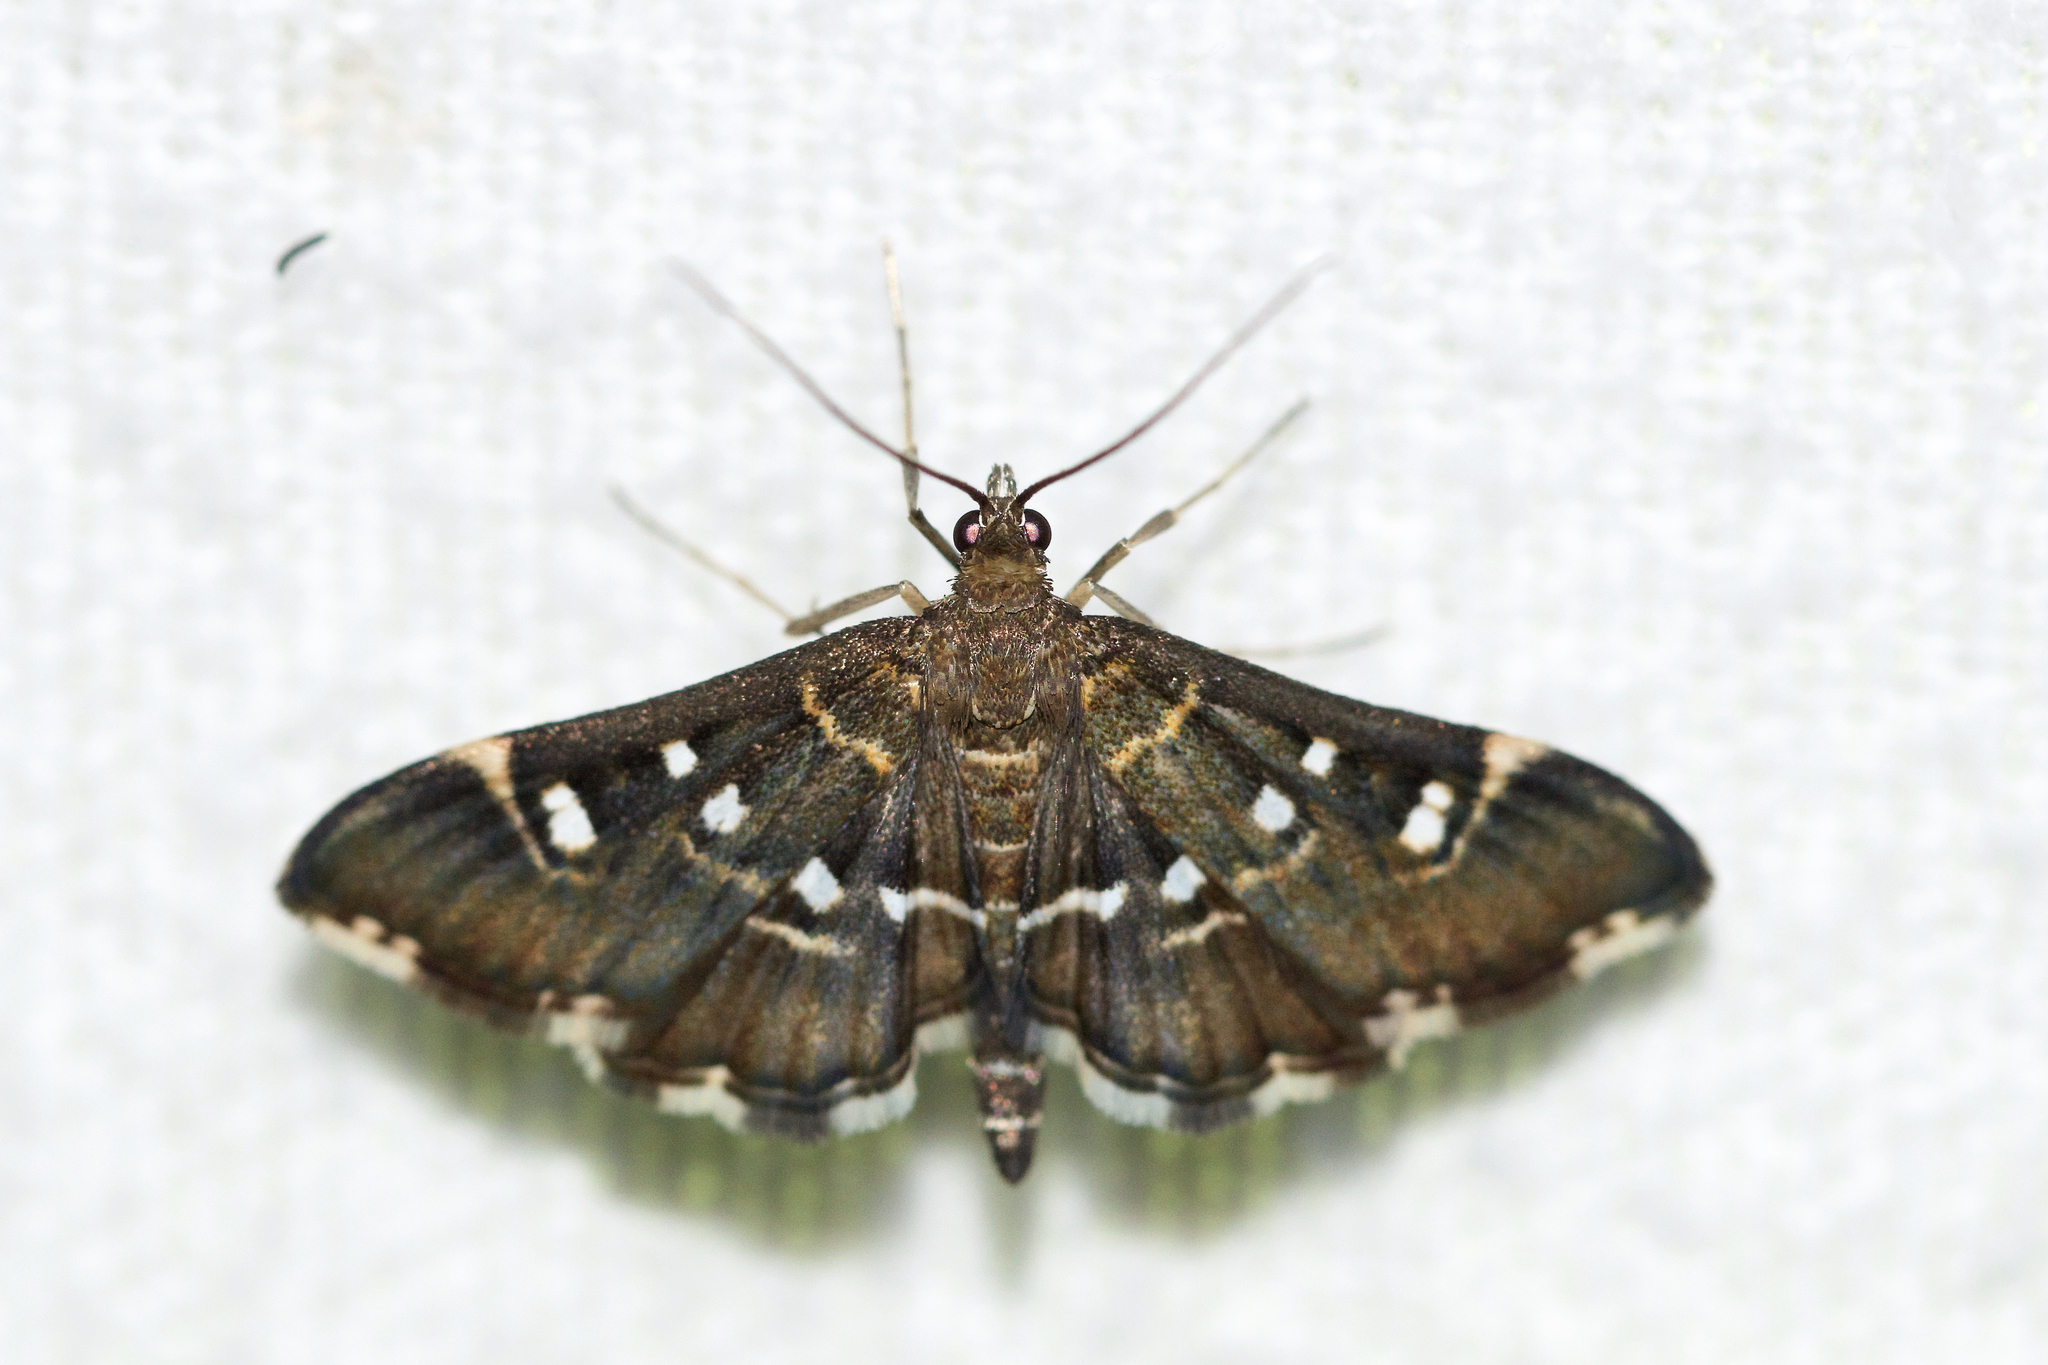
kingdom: Animalia
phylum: Arthropoda
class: Insecta
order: Lepidoptera
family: Crambidae
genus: Diathrausta
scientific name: Diathrausta harlequinalis
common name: Harlequin webworm moth
